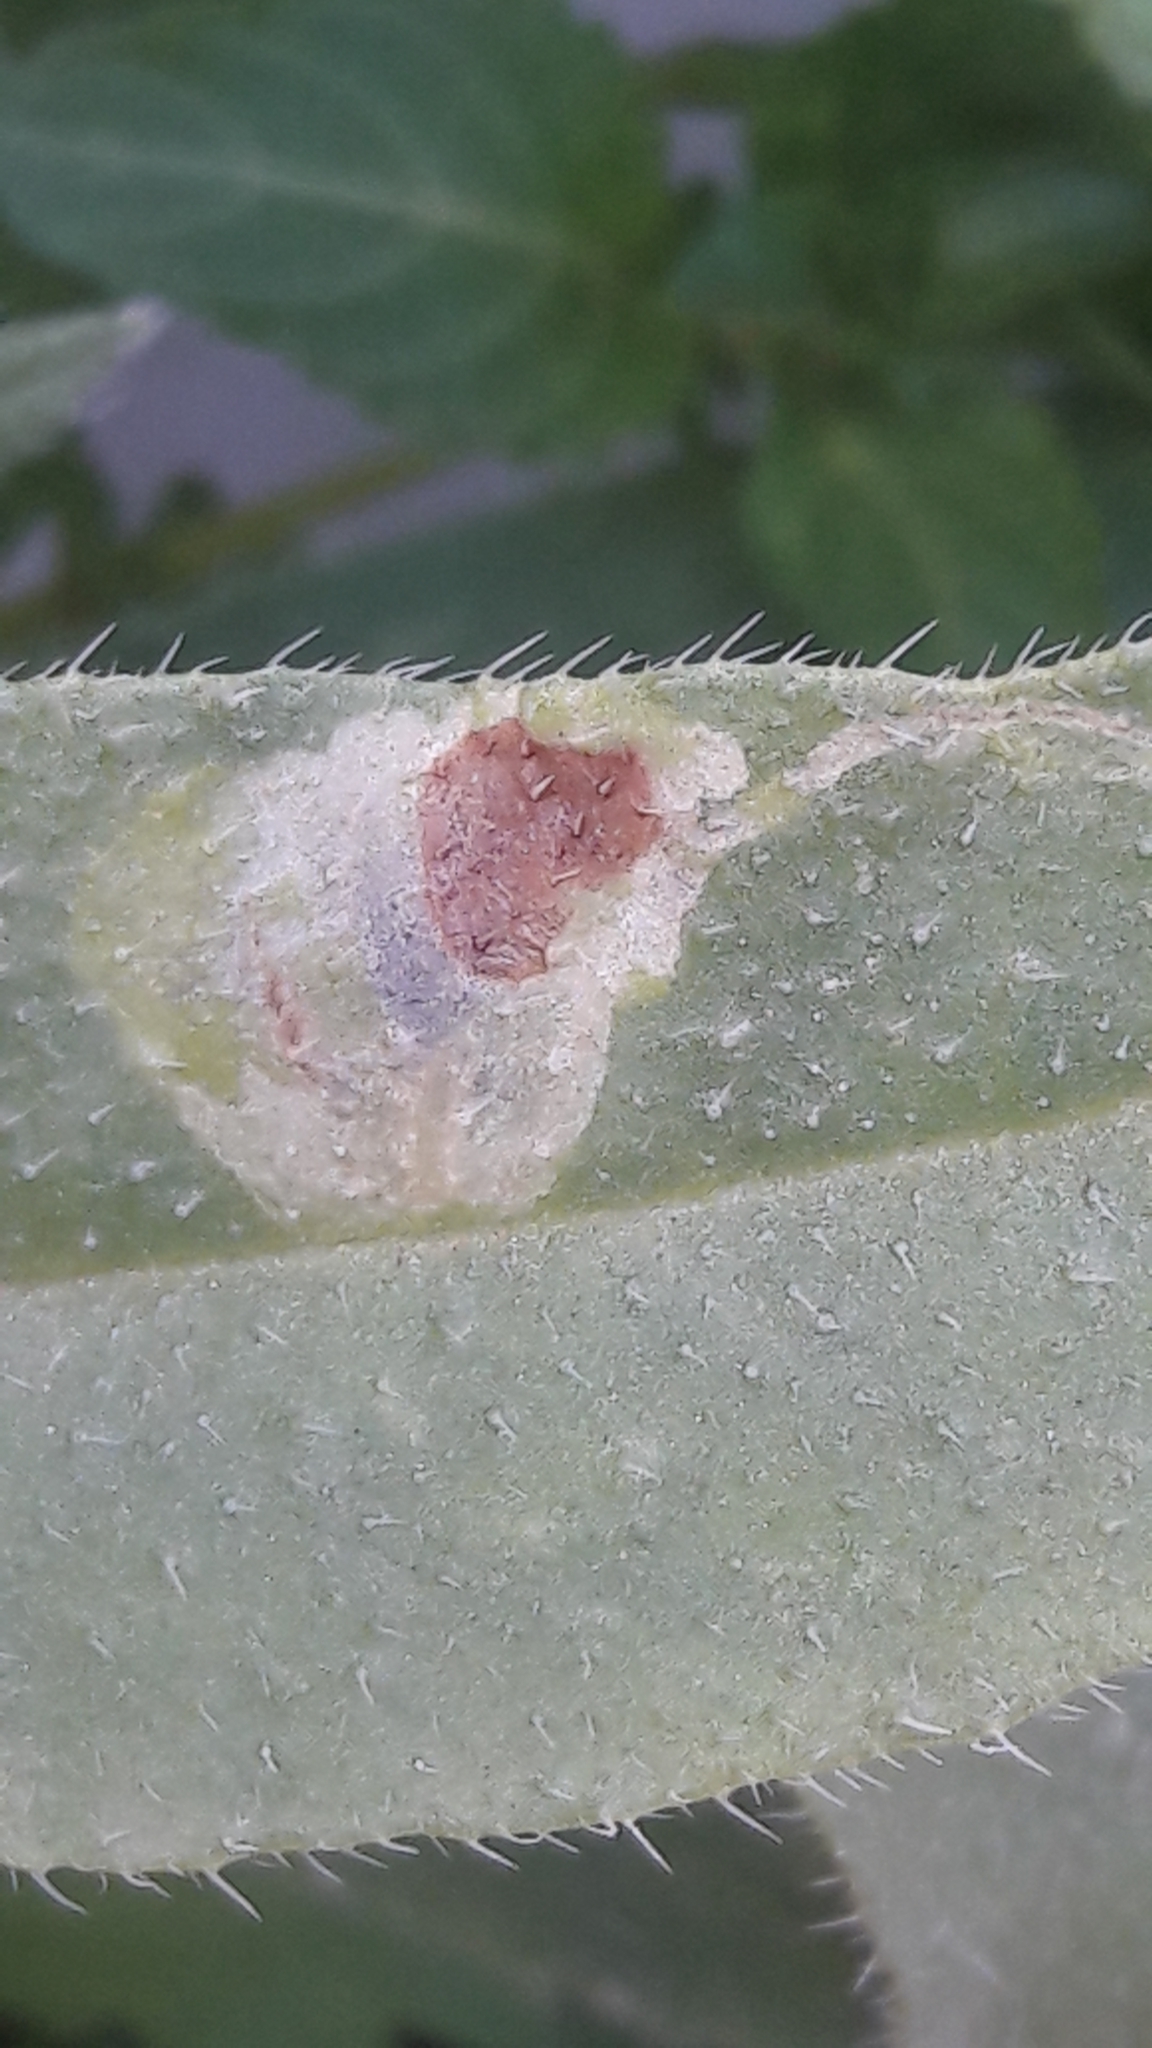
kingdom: Plantae
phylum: Tracheophyta
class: Magnoliopsida
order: Boraginales
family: Boraginaceae
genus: Hormuzakia
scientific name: Hormuzakia aggregata
